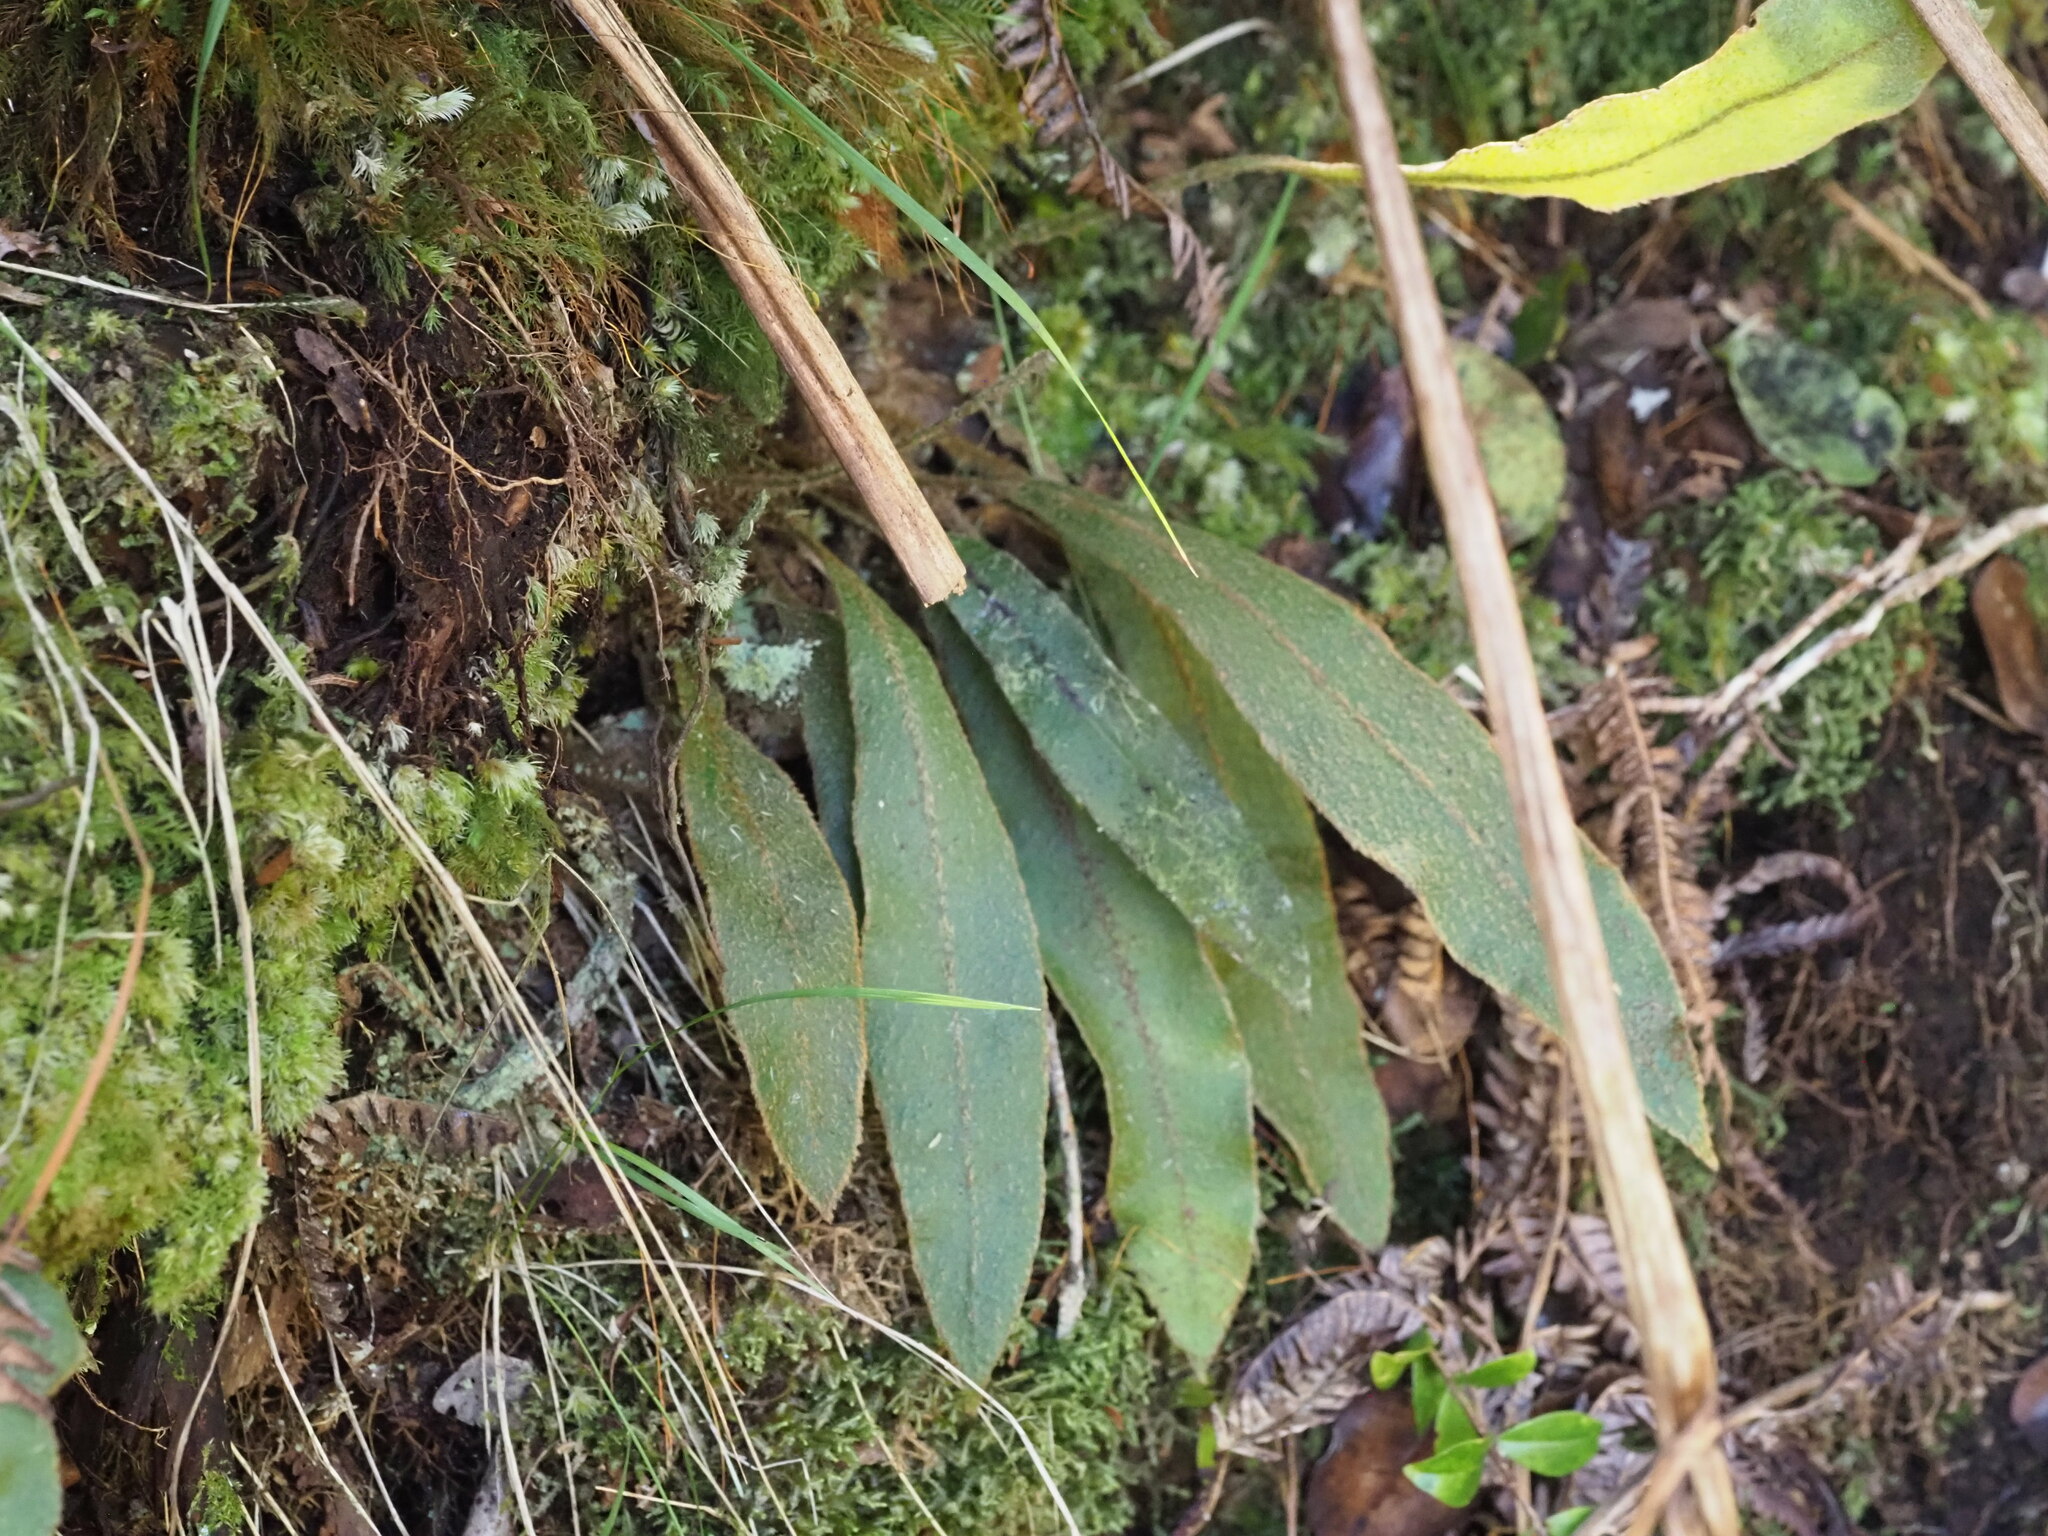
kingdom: Plantae
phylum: Tracheophyta
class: Polypodiopsida
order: Polypodiales
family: Dryopteridaceae
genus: Elaphoglossum
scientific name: Elaphoglossum paleaceum
